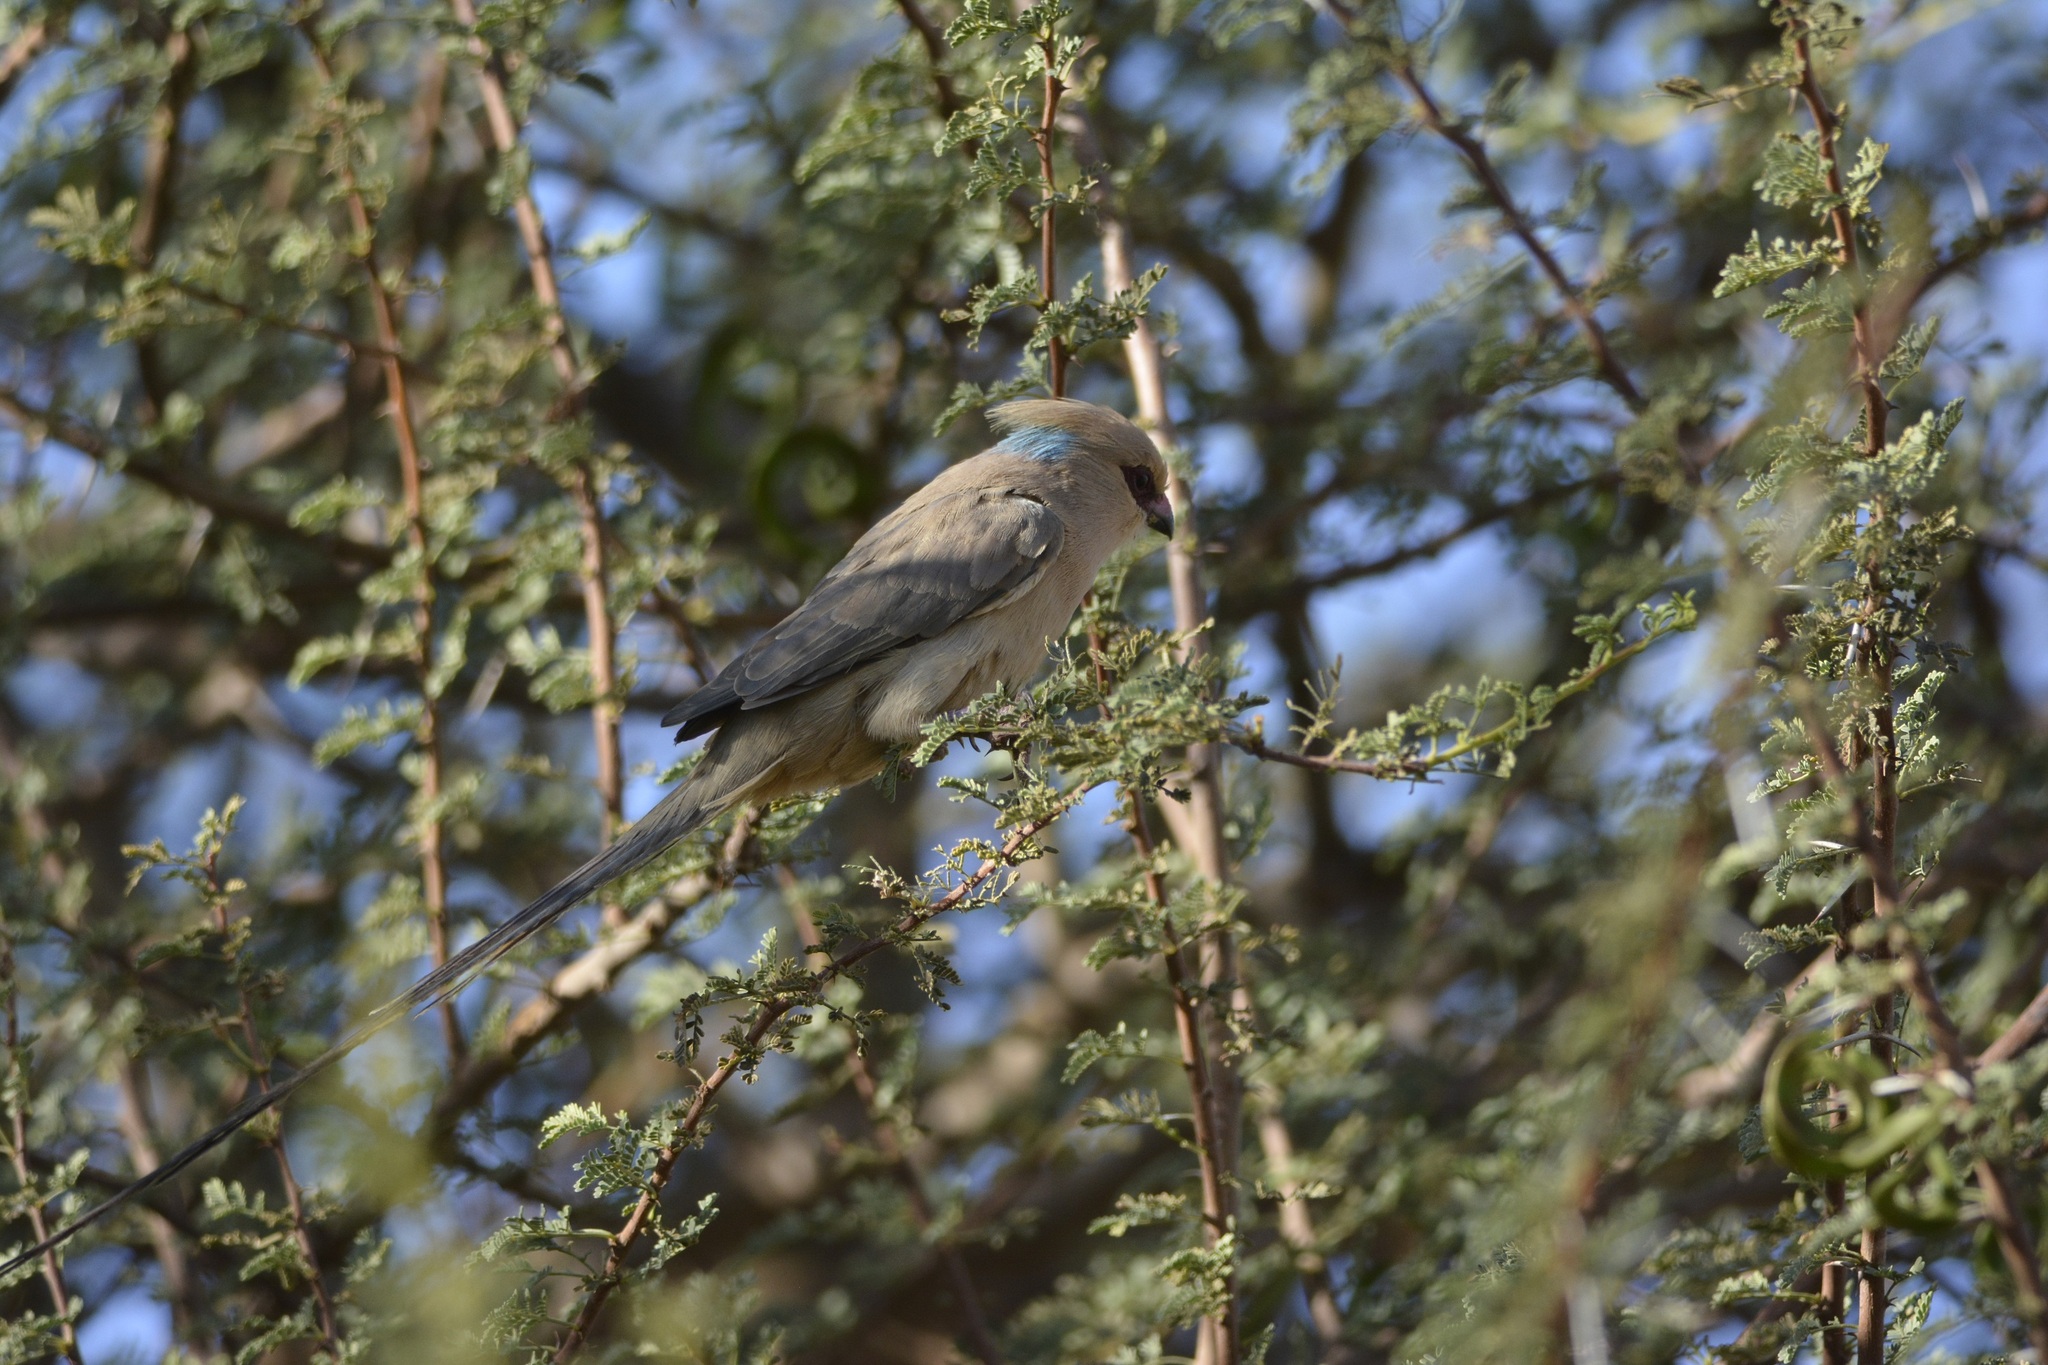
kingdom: Animalia
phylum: Chordata
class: Aves
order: Coliiformes
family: Coliidae
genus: Urocolius
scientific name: Urocolius macrourus
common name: Blue-naped mousebird
